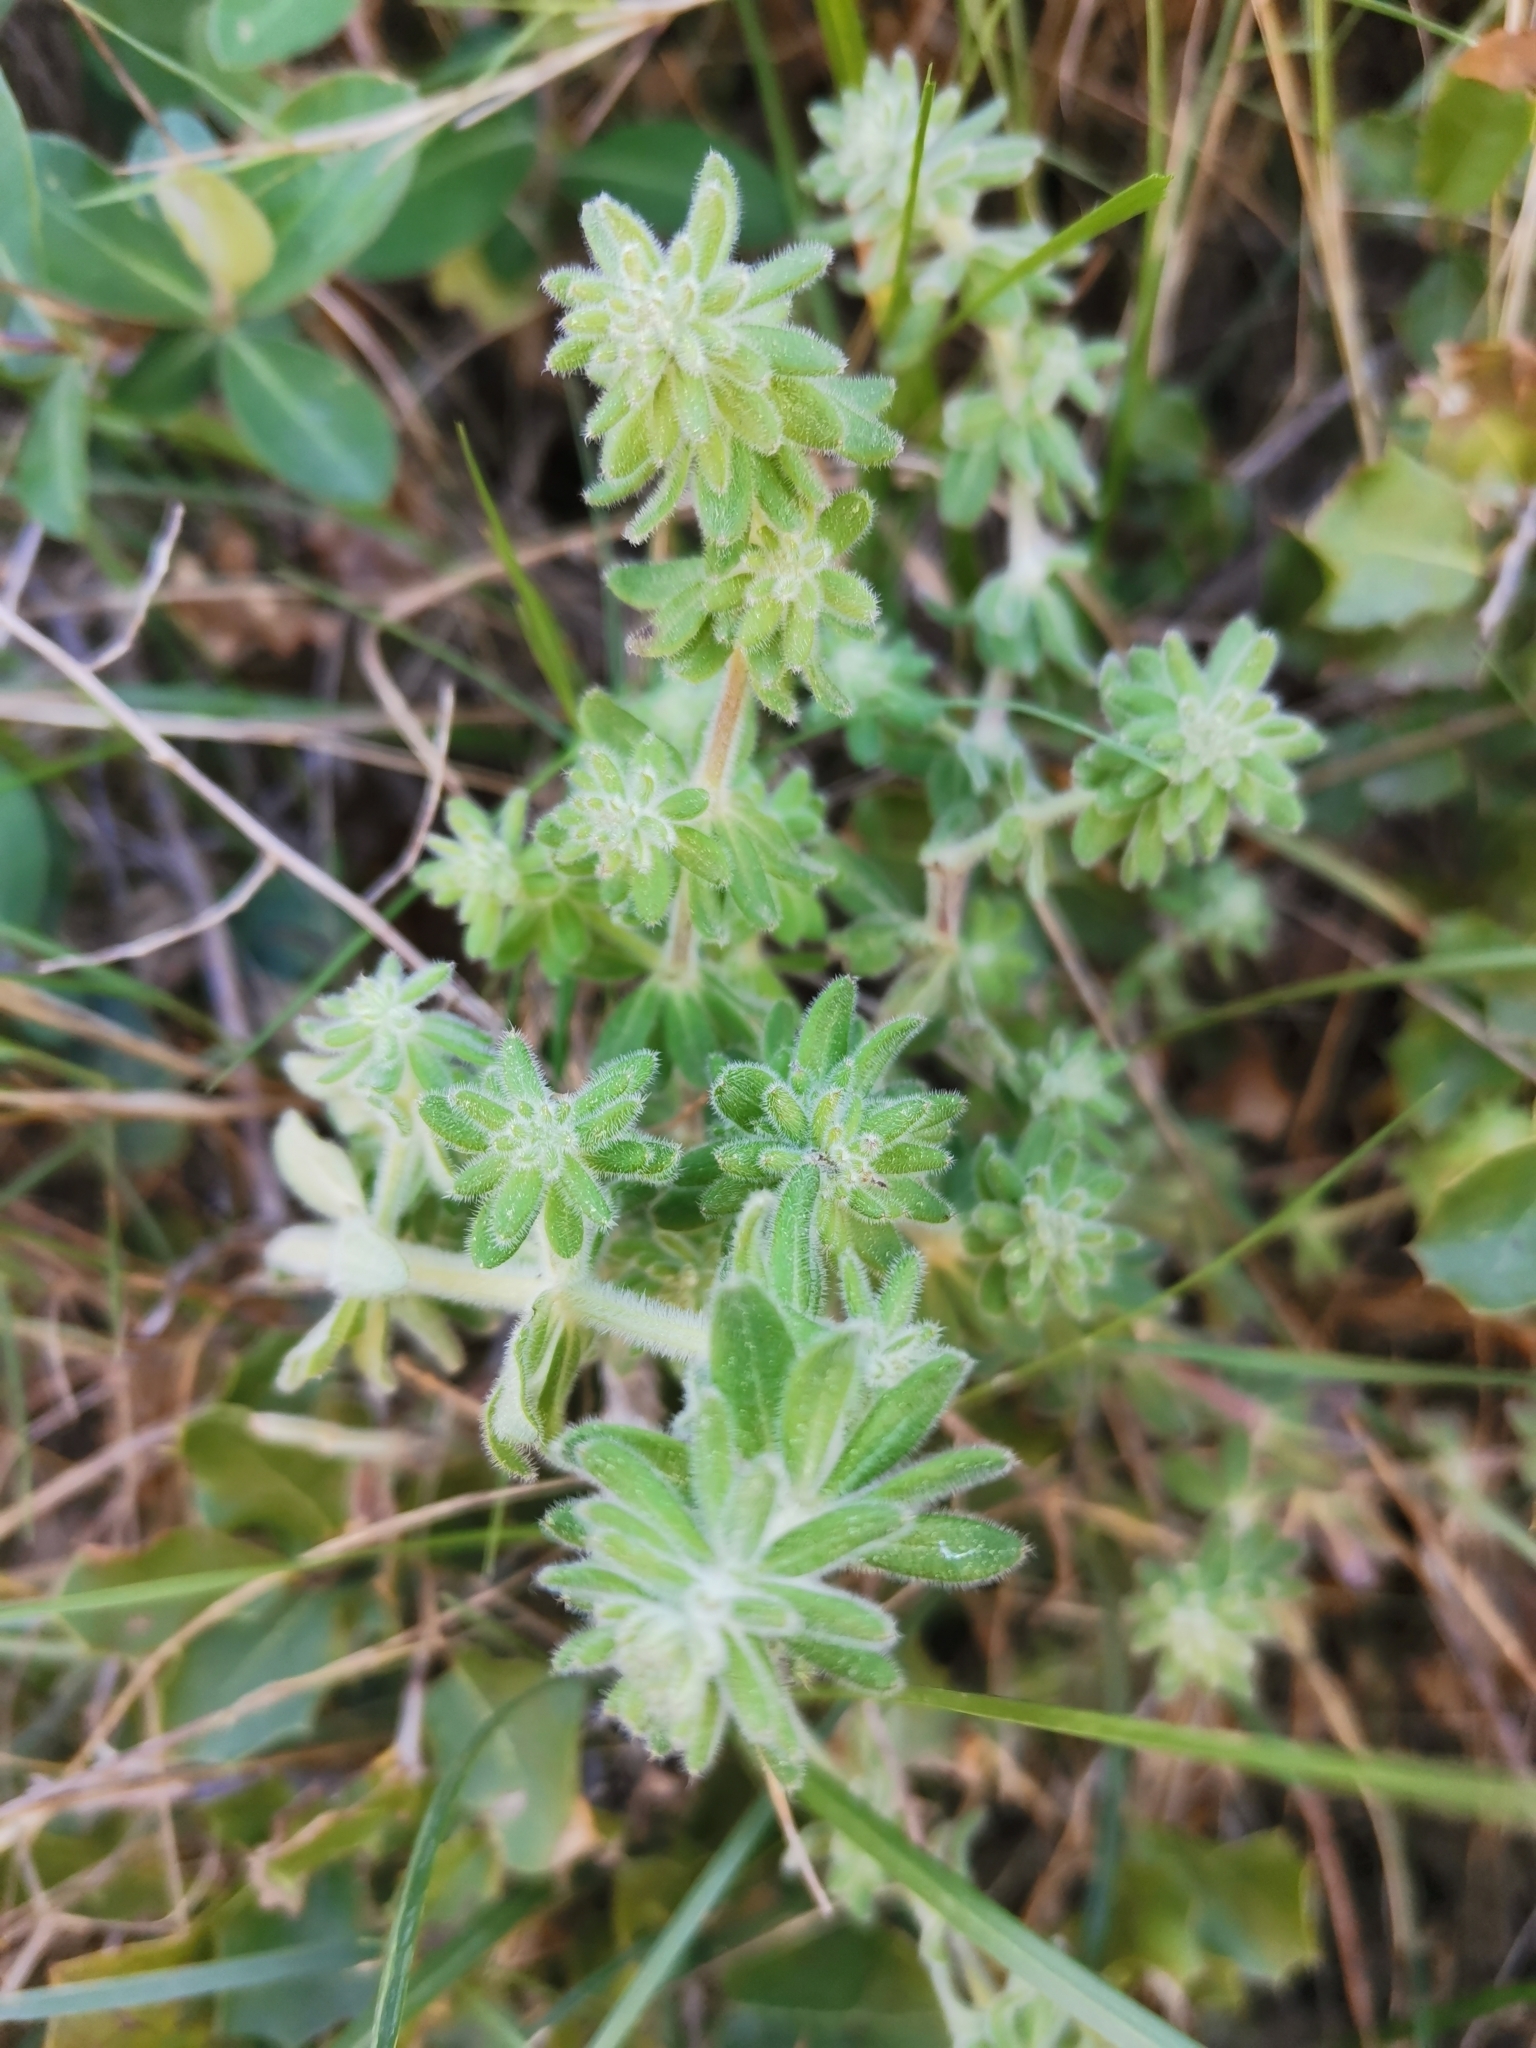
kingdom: Plantae
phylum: Tracheophyta
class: Magnoliopsida
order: Gentianales
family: Rubiaceae
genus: Galium
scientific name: Galium maritimum
